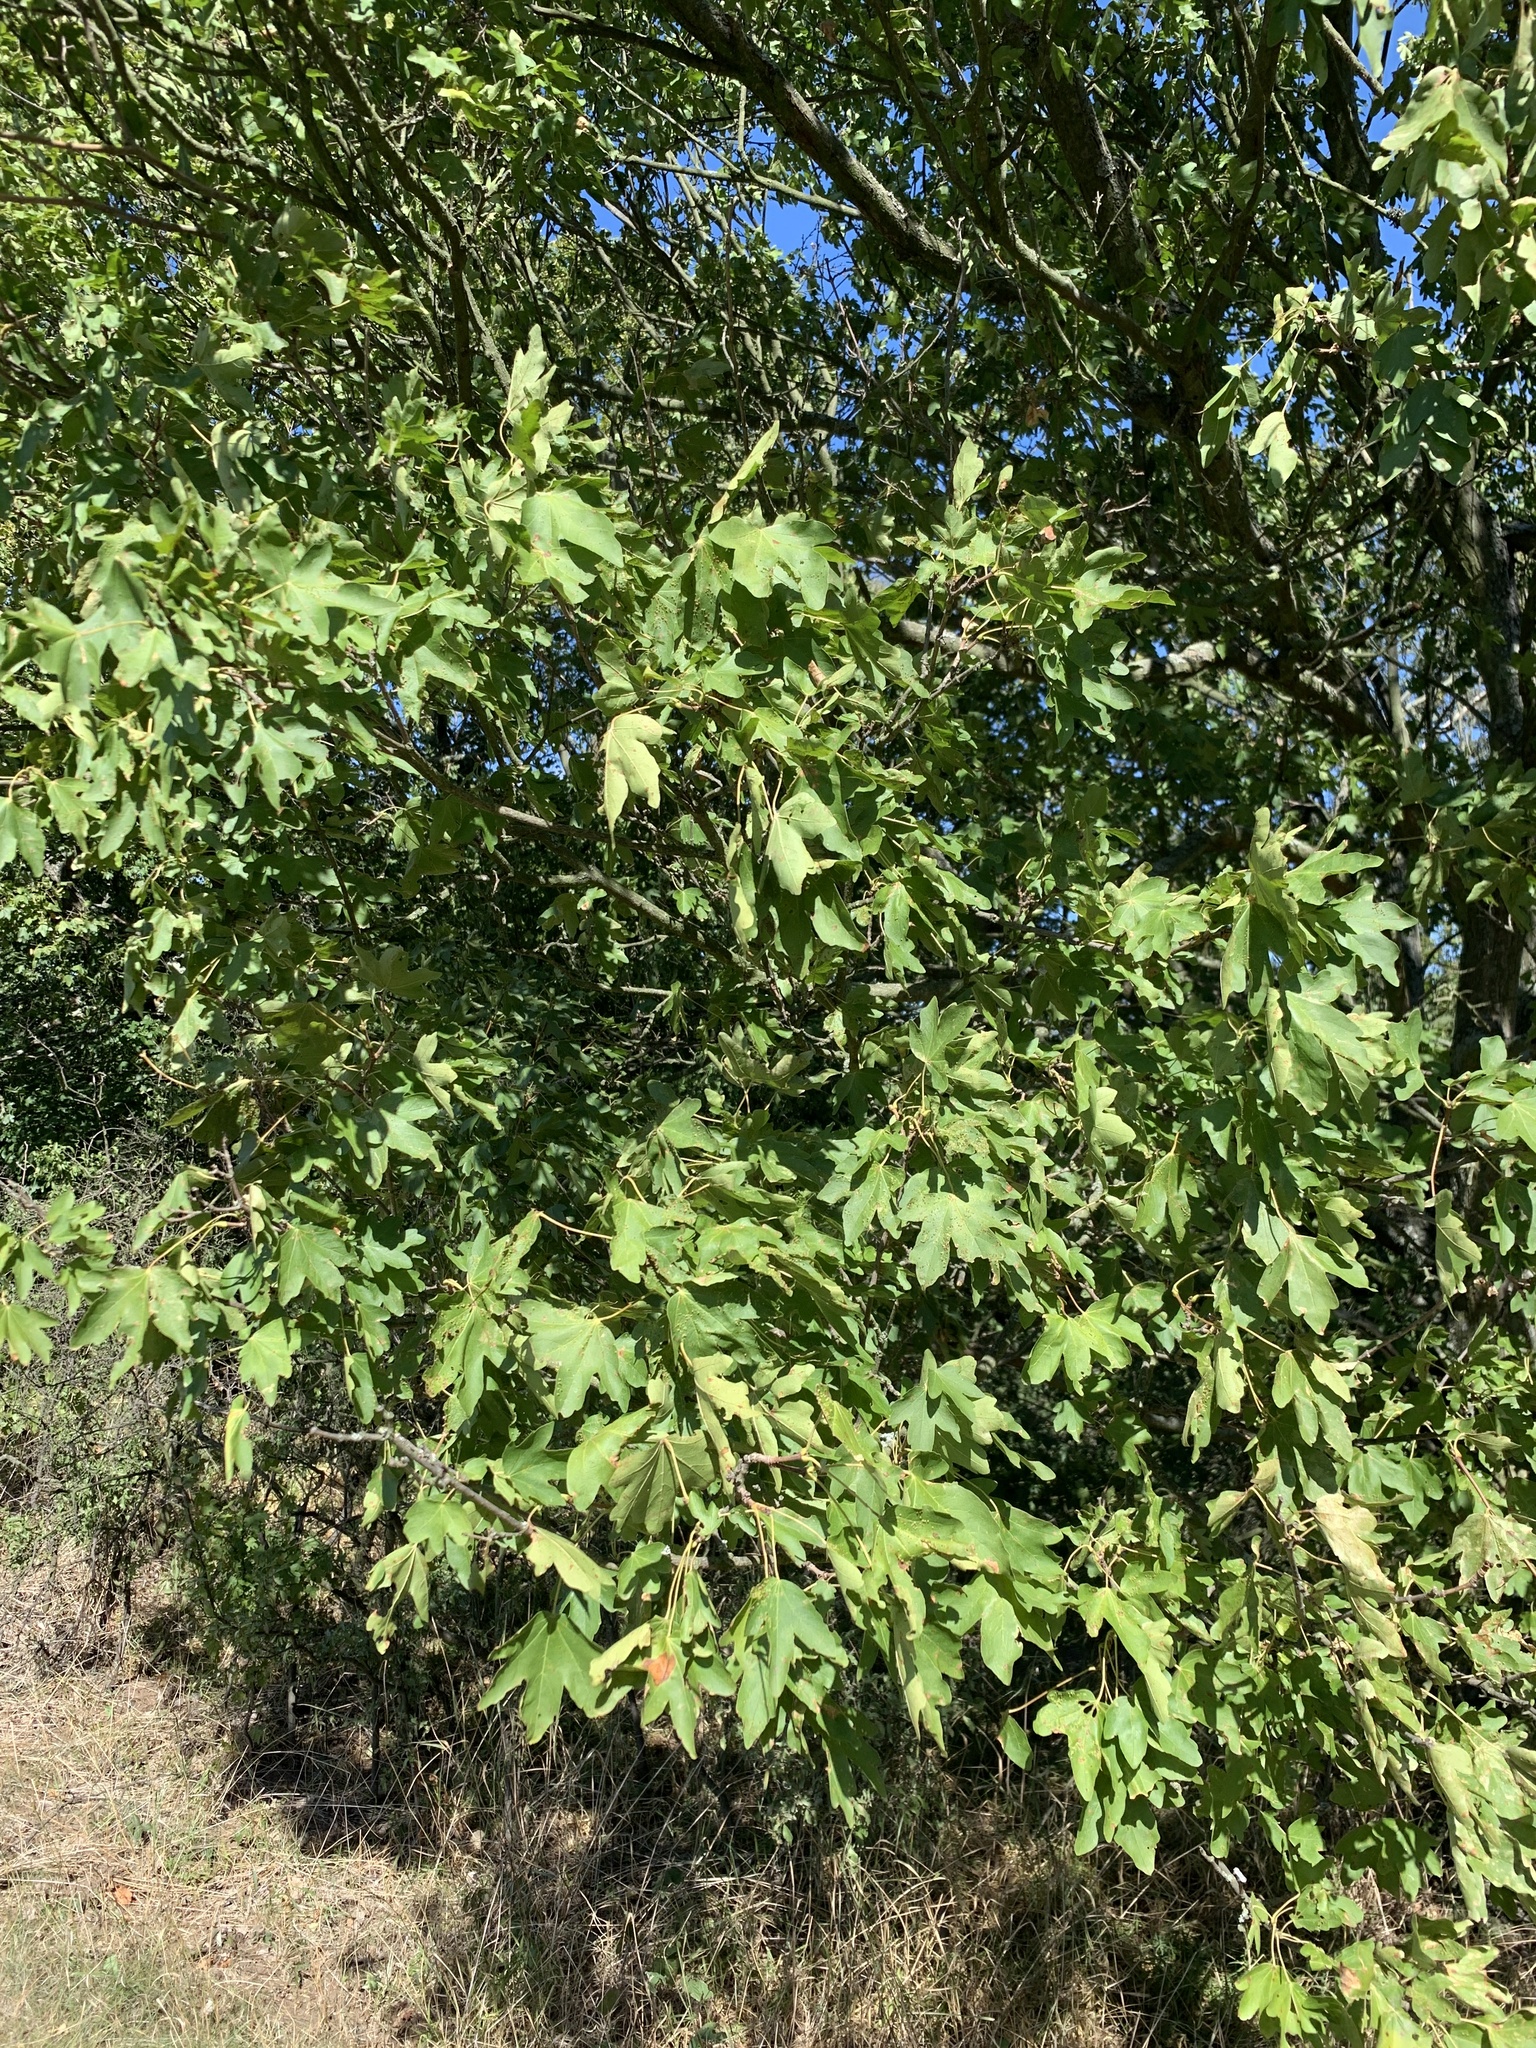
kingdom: Plantae
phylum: Tracheophyta
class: Magnoliopsida
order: Sapindales
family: Sapindaceae
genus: Acer
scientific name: Acer campestre
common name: Field maple
